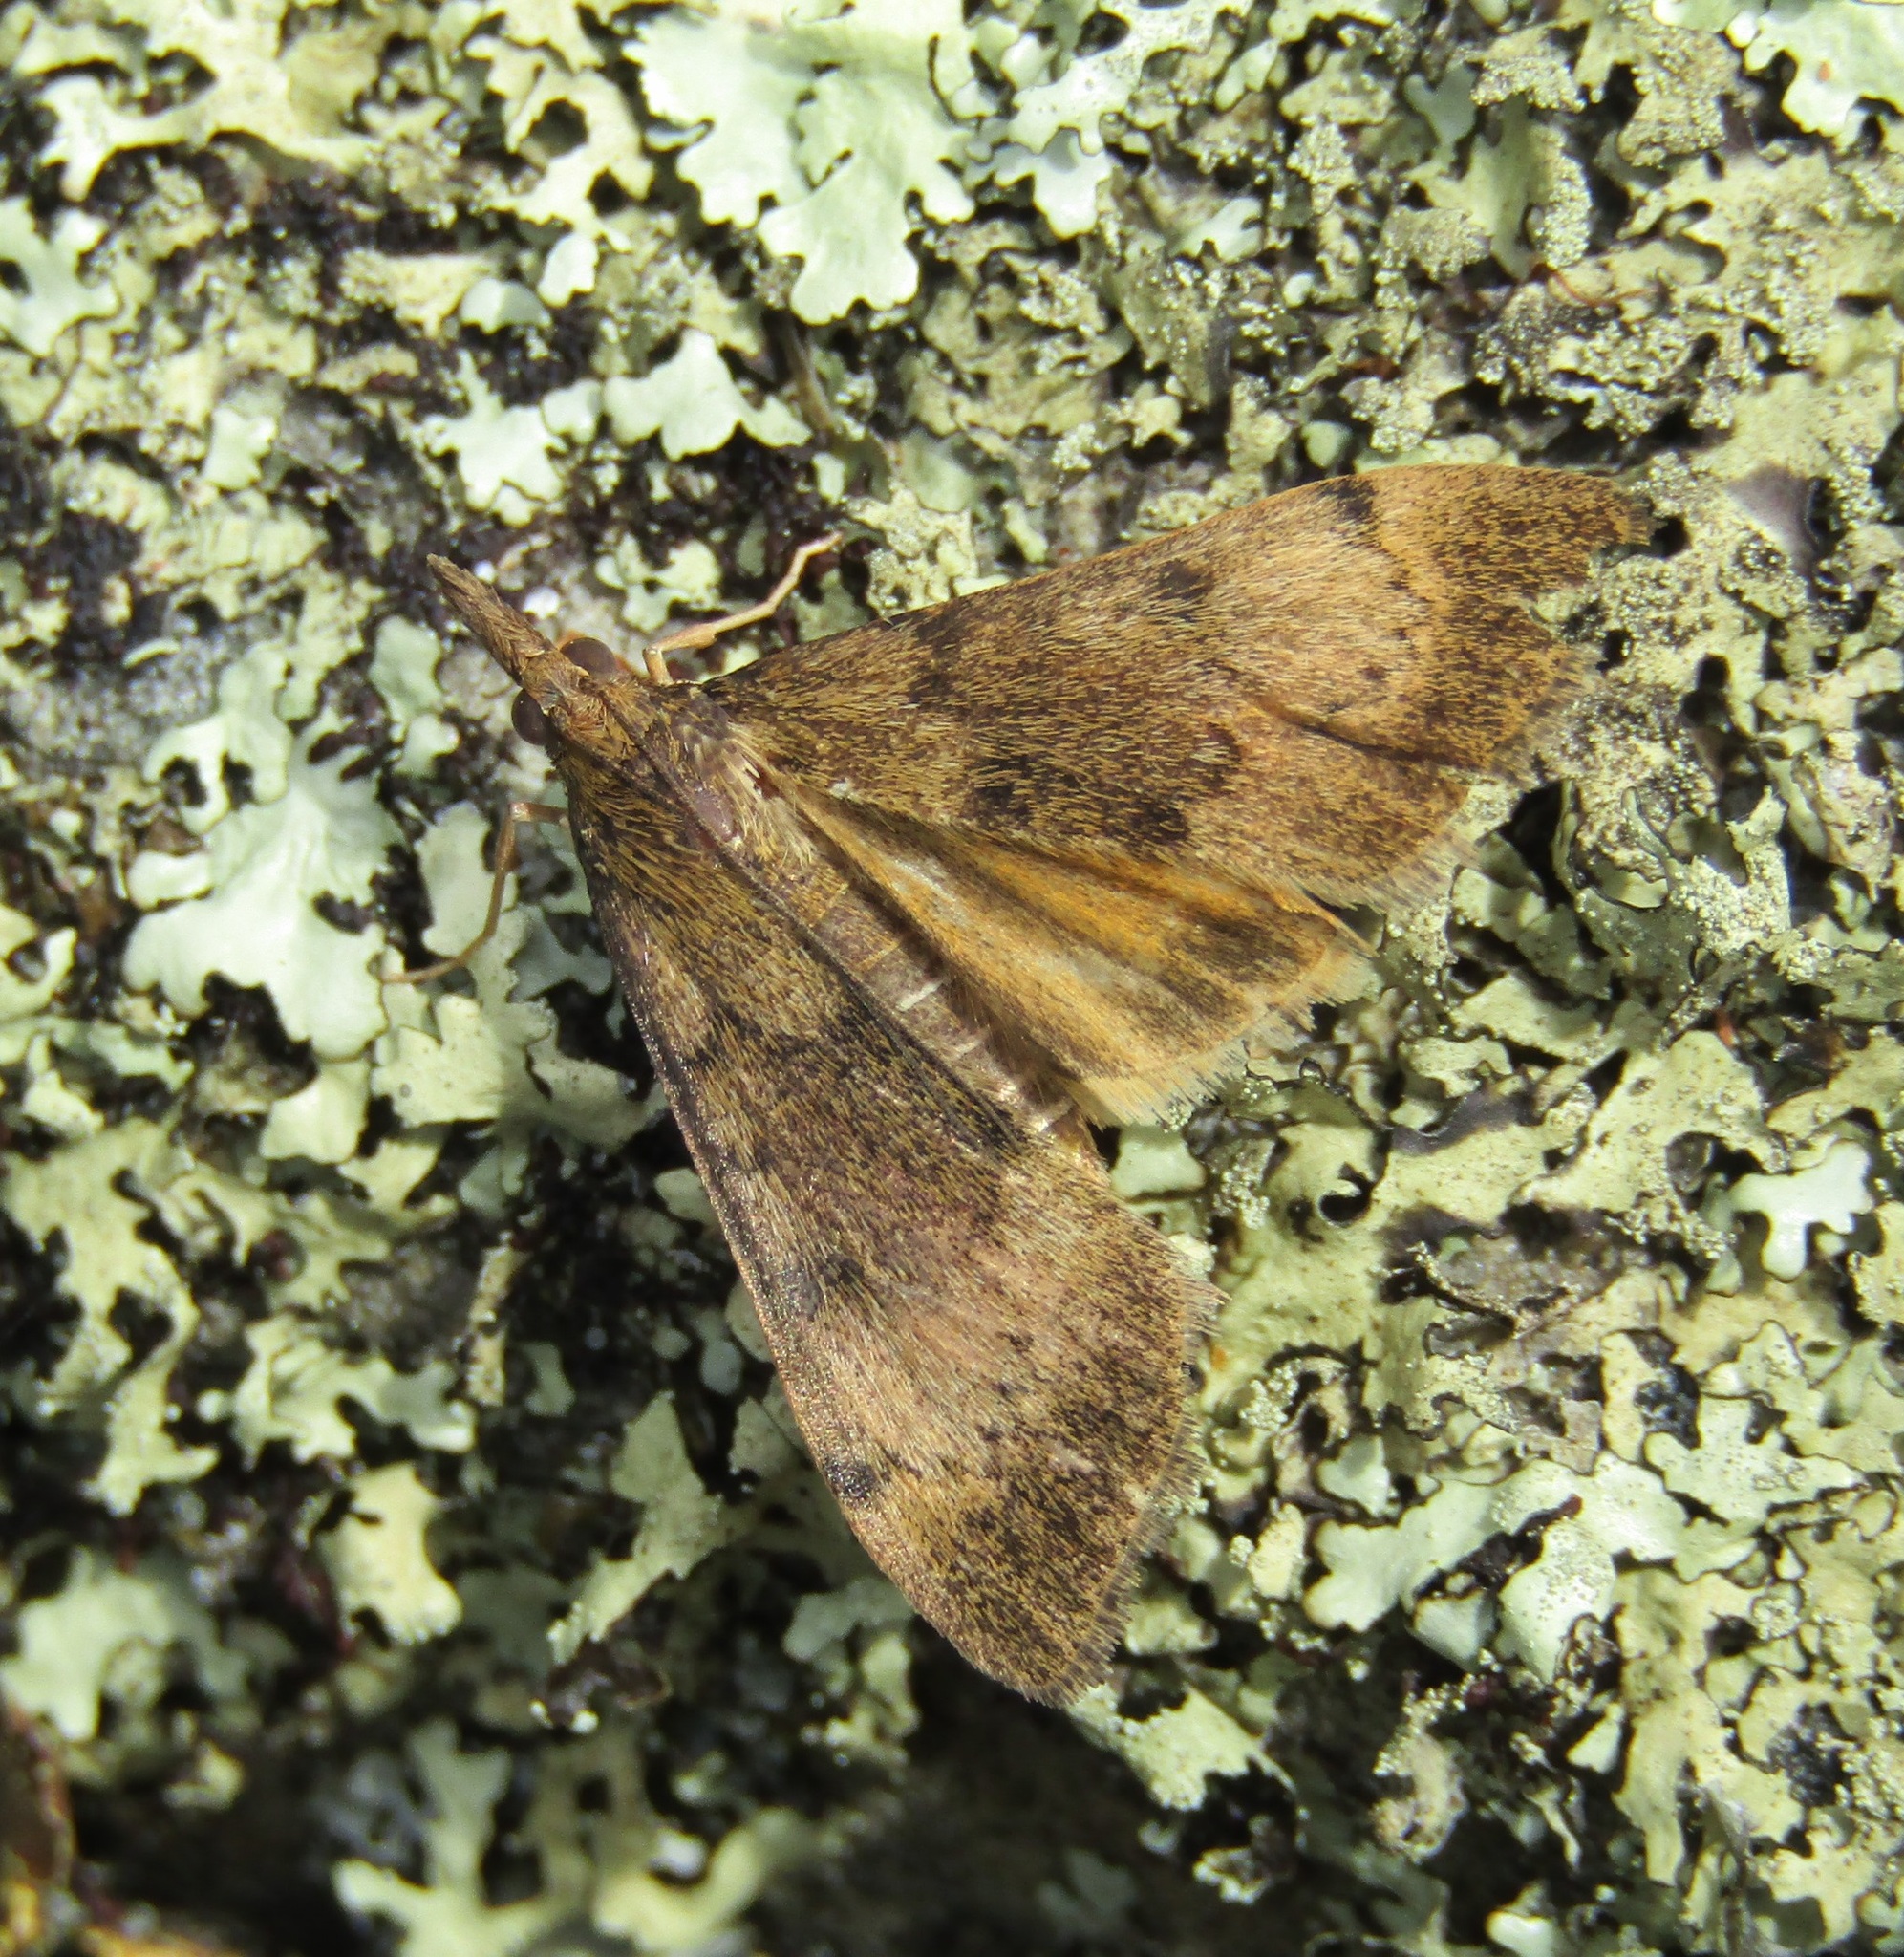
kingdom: Animalia
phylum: Arthropoda
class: Insecta
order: Lepidoptera
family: Crambidae
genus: Uresiphita
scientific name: Uresiphita
